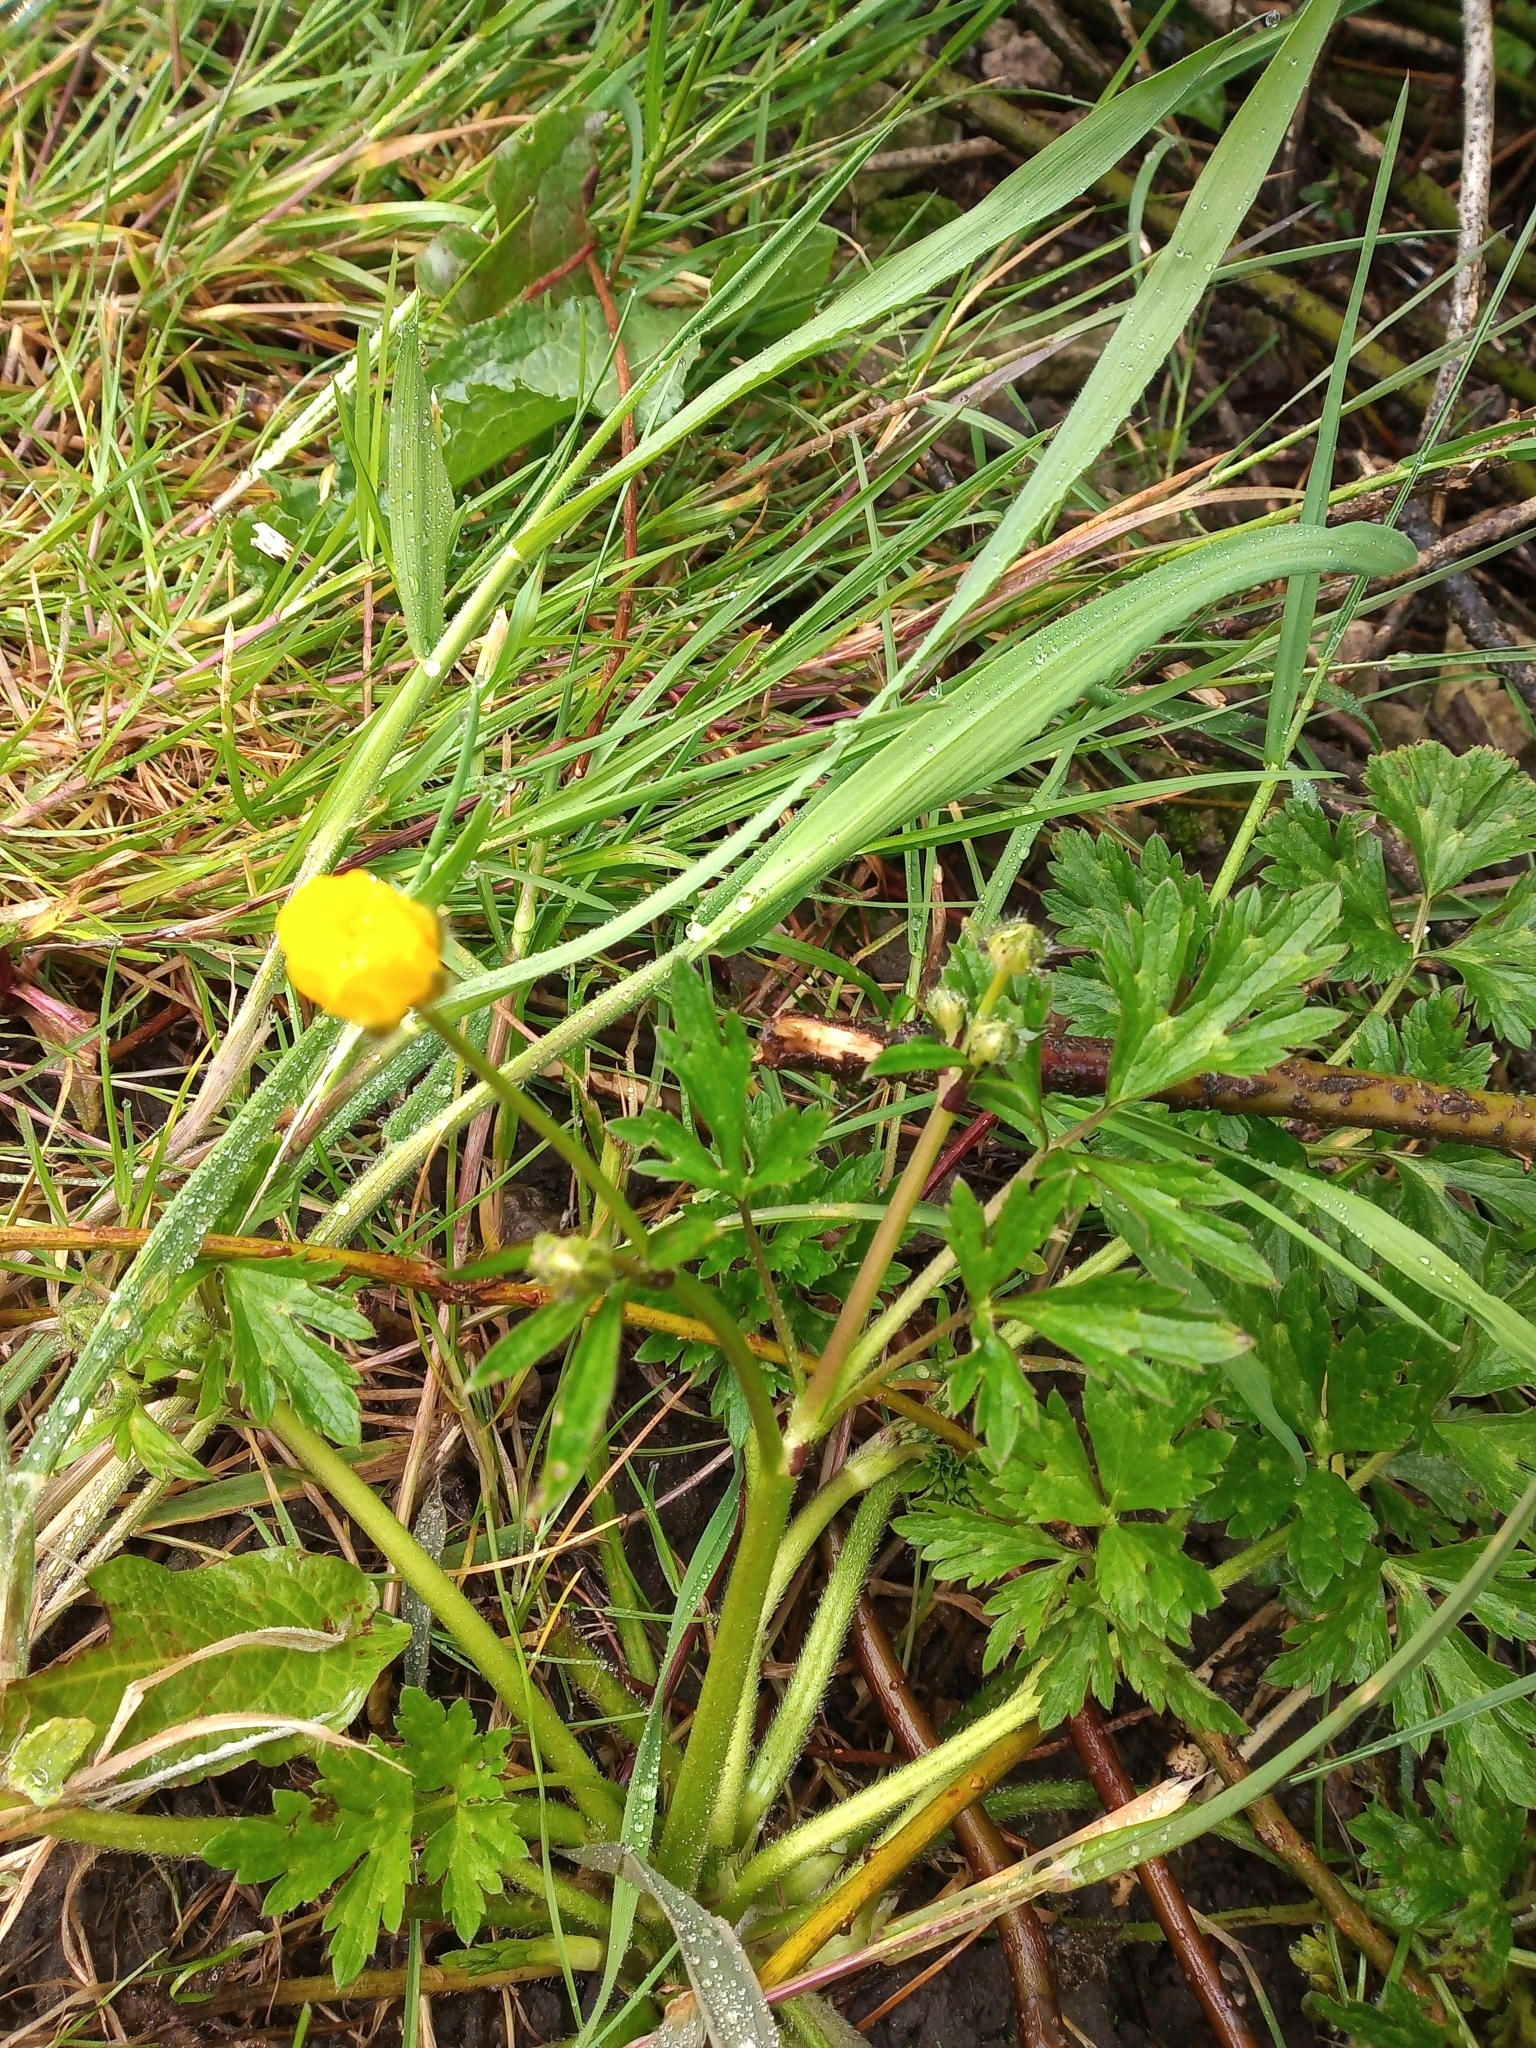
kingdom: Plantae
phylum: Tracheophyta
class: Magnoliopsida
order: Ranunculales
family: Ranunculaceae
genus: Ranunculus
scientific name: Ranunculus repens
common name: Creeping buttercup
